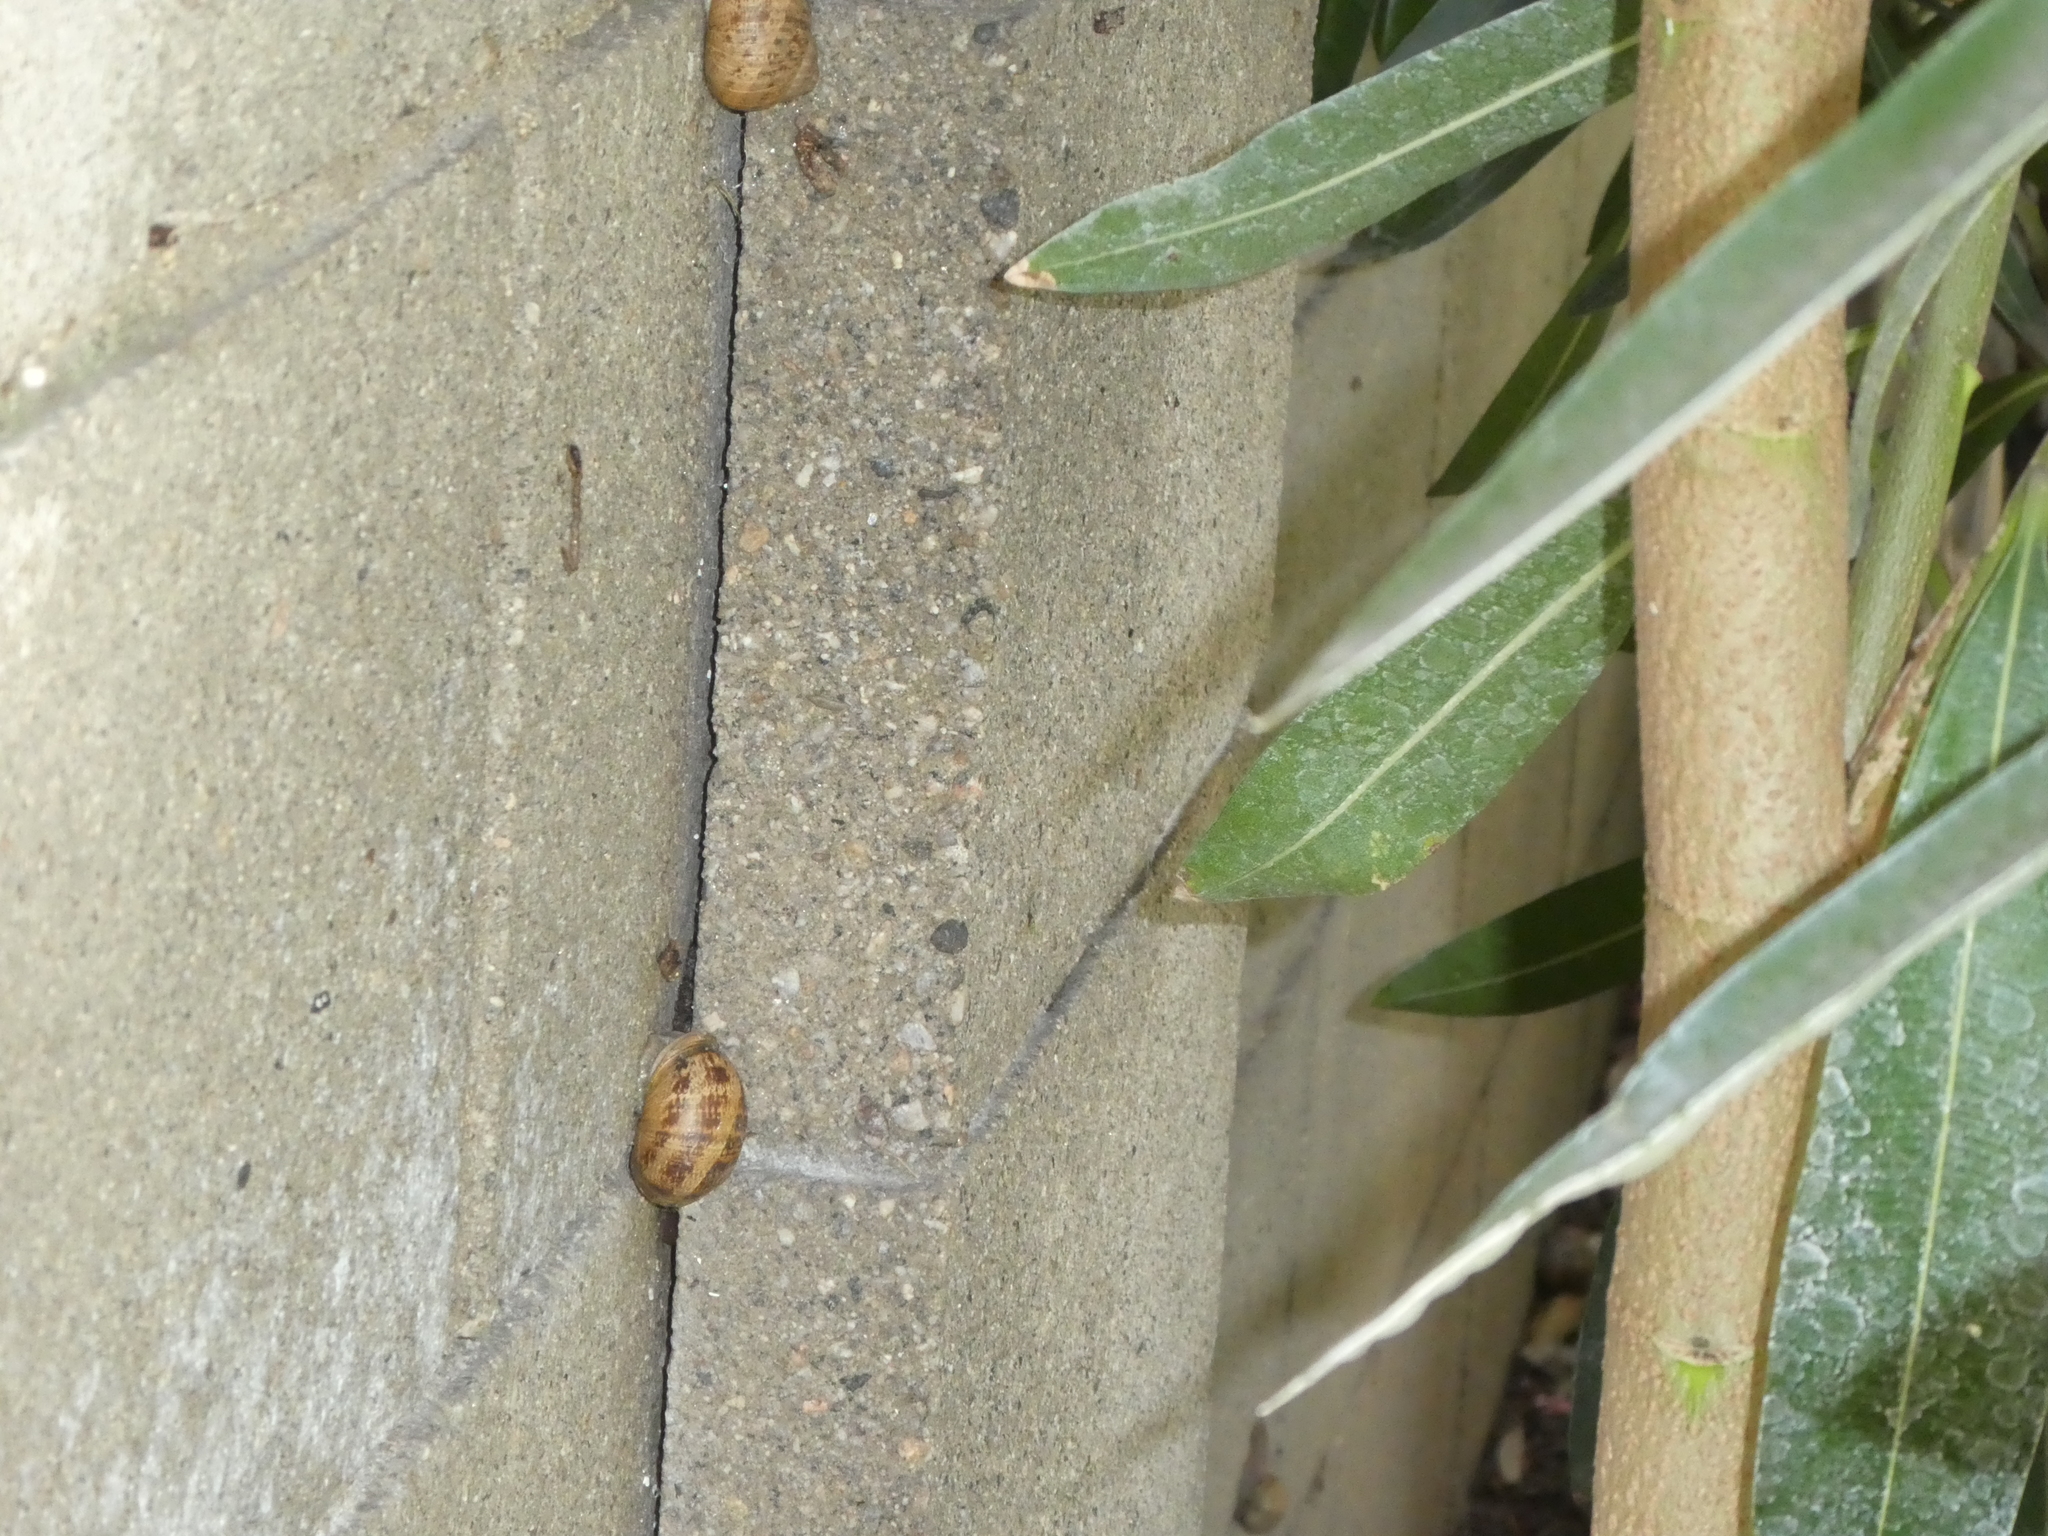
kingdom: Animalia
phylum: Mollusca
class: Gastropoda
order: Stylommatophora
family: Helicidae
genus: Cornu
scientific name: Cornu aspersum
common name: Brown garden snail
